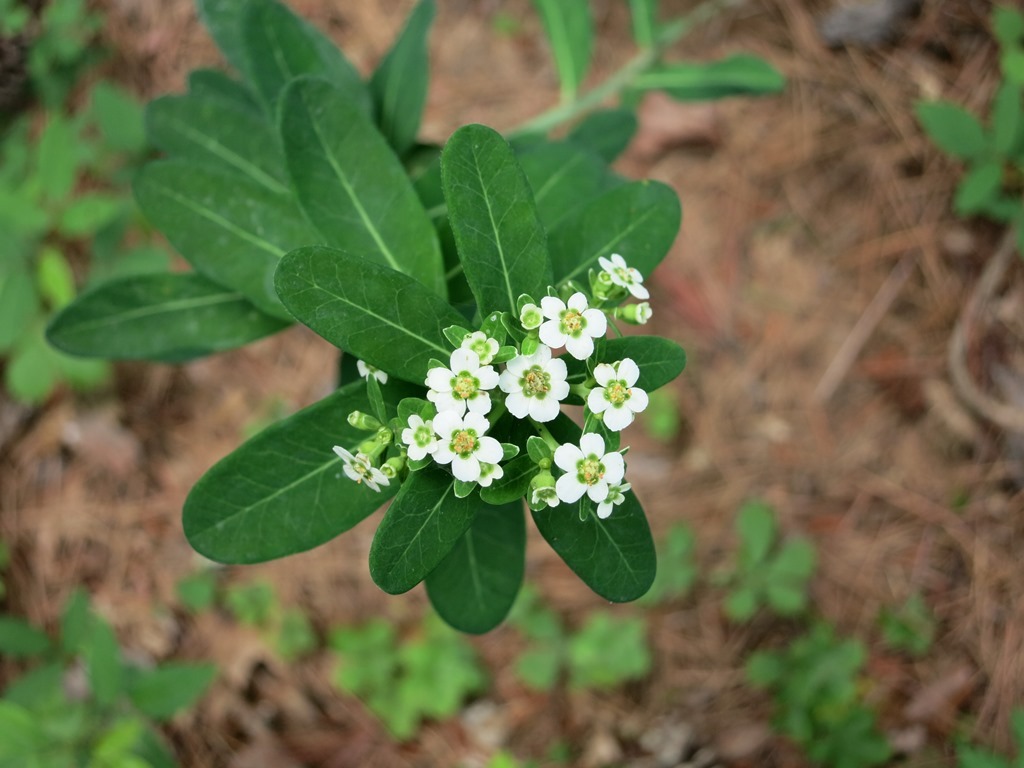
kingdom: Plantae
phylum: Tracheophyta
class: Magnoliopsida
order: Malpighiales
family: Euphorbiaceae
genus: Euphorbia
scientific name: Euphorbia corollata
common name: Flowering spurge
